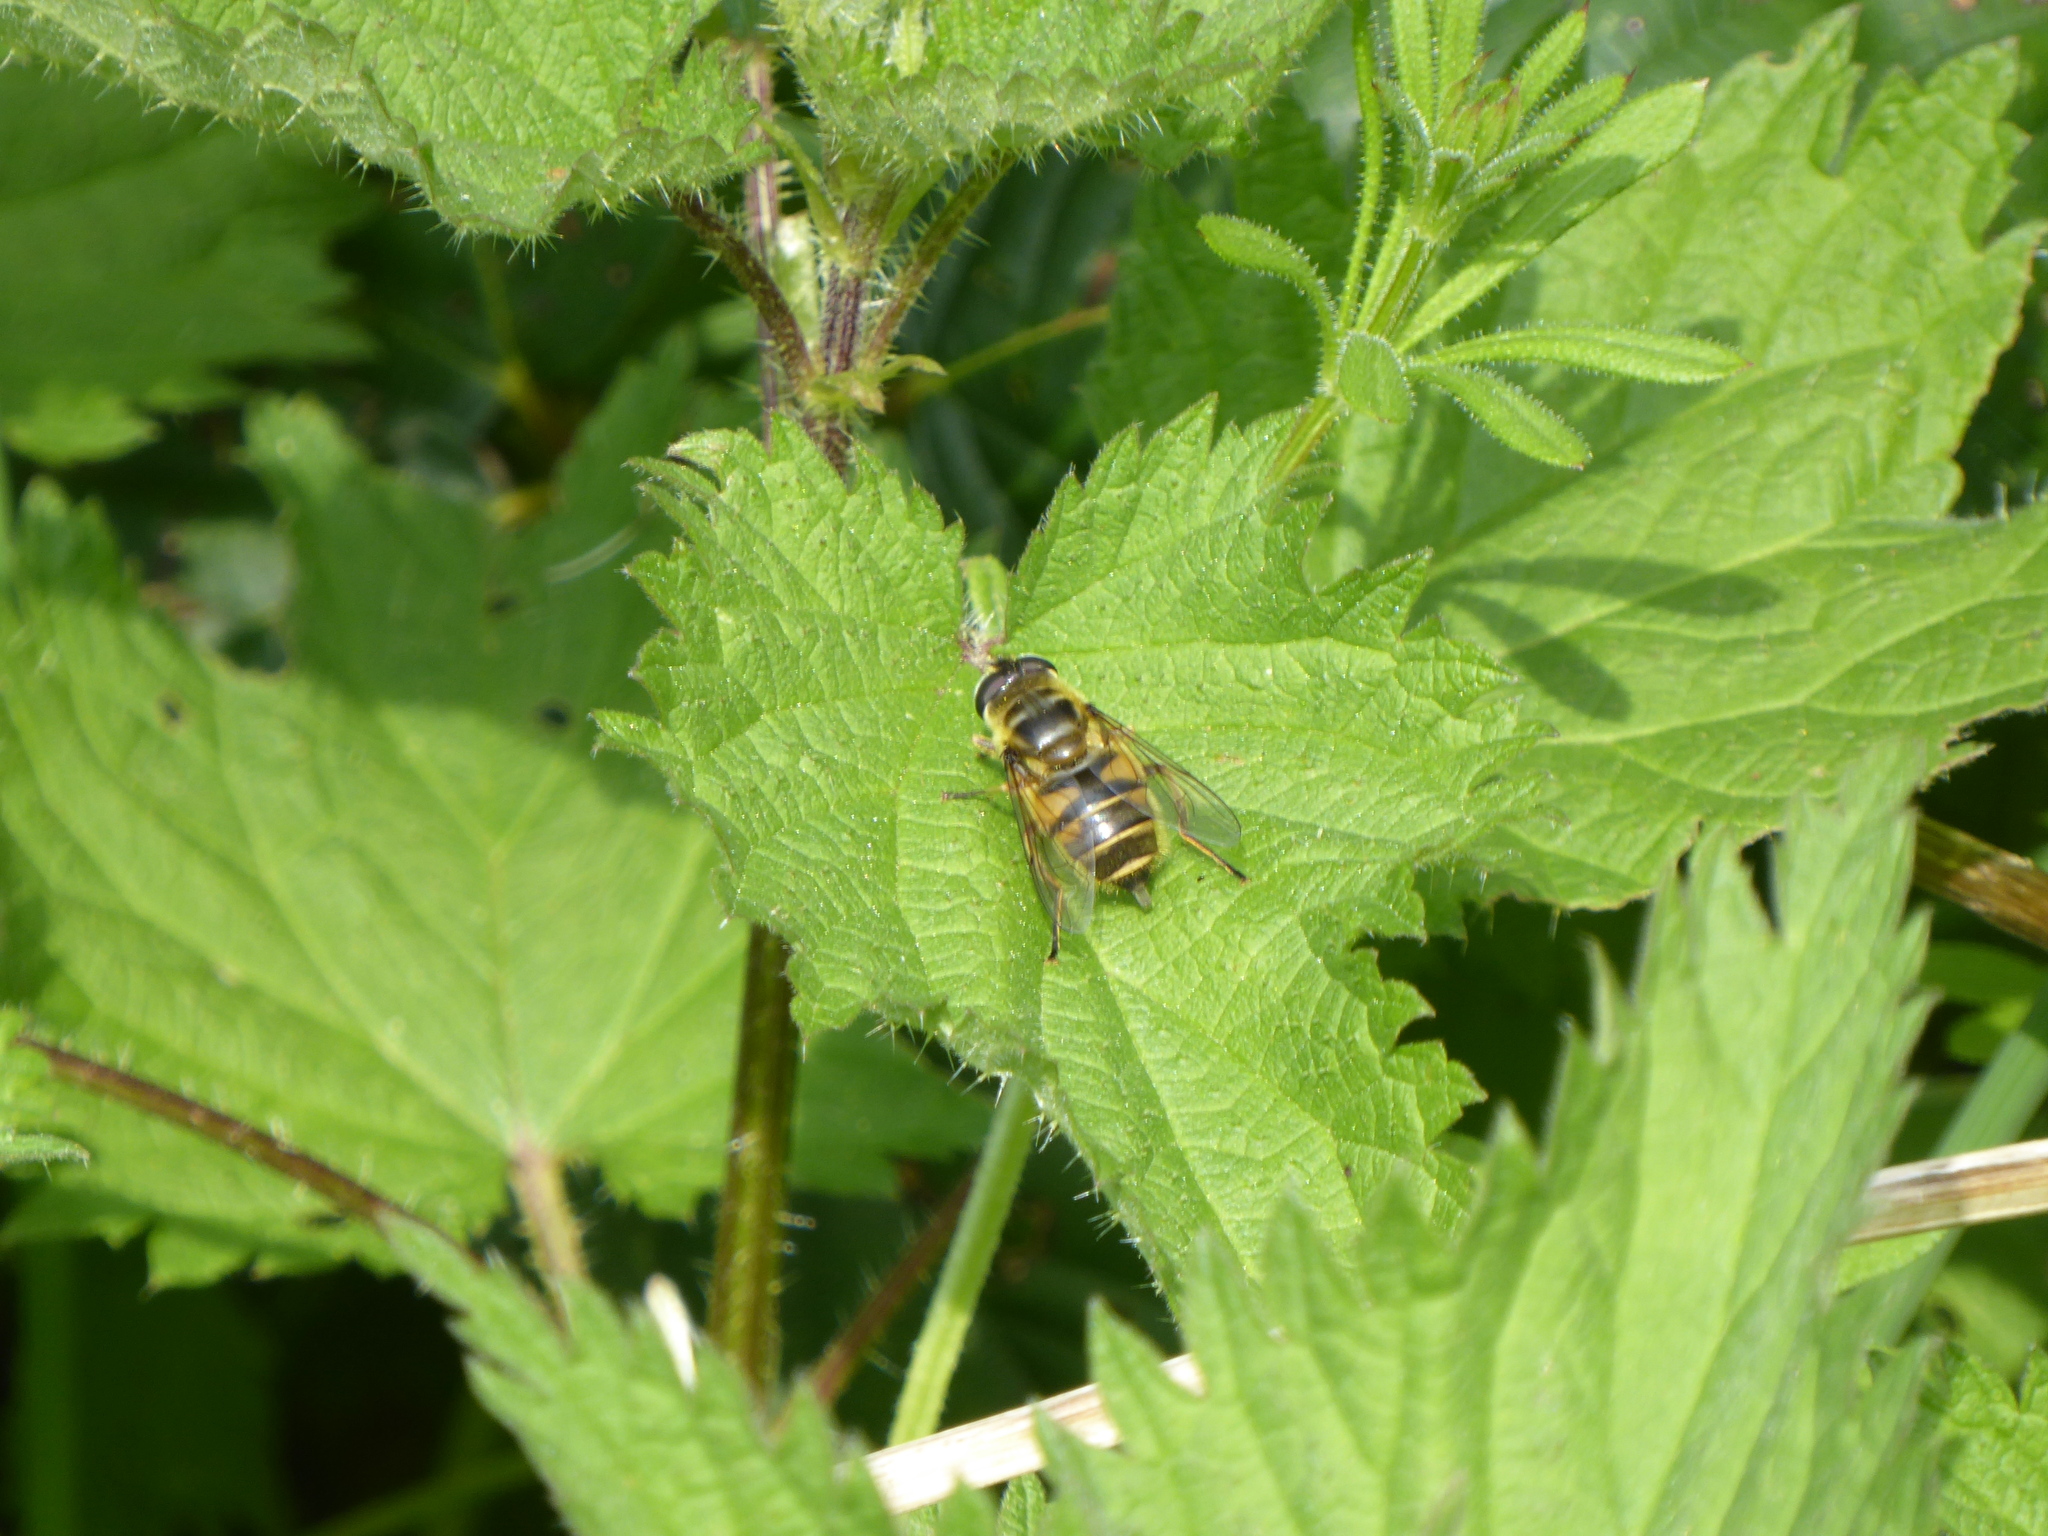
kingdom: Animalia
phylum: Arthropoda
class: Insecta
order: Diptera
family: Syrphidae
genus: Myathropa
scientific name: Myathropa florea
